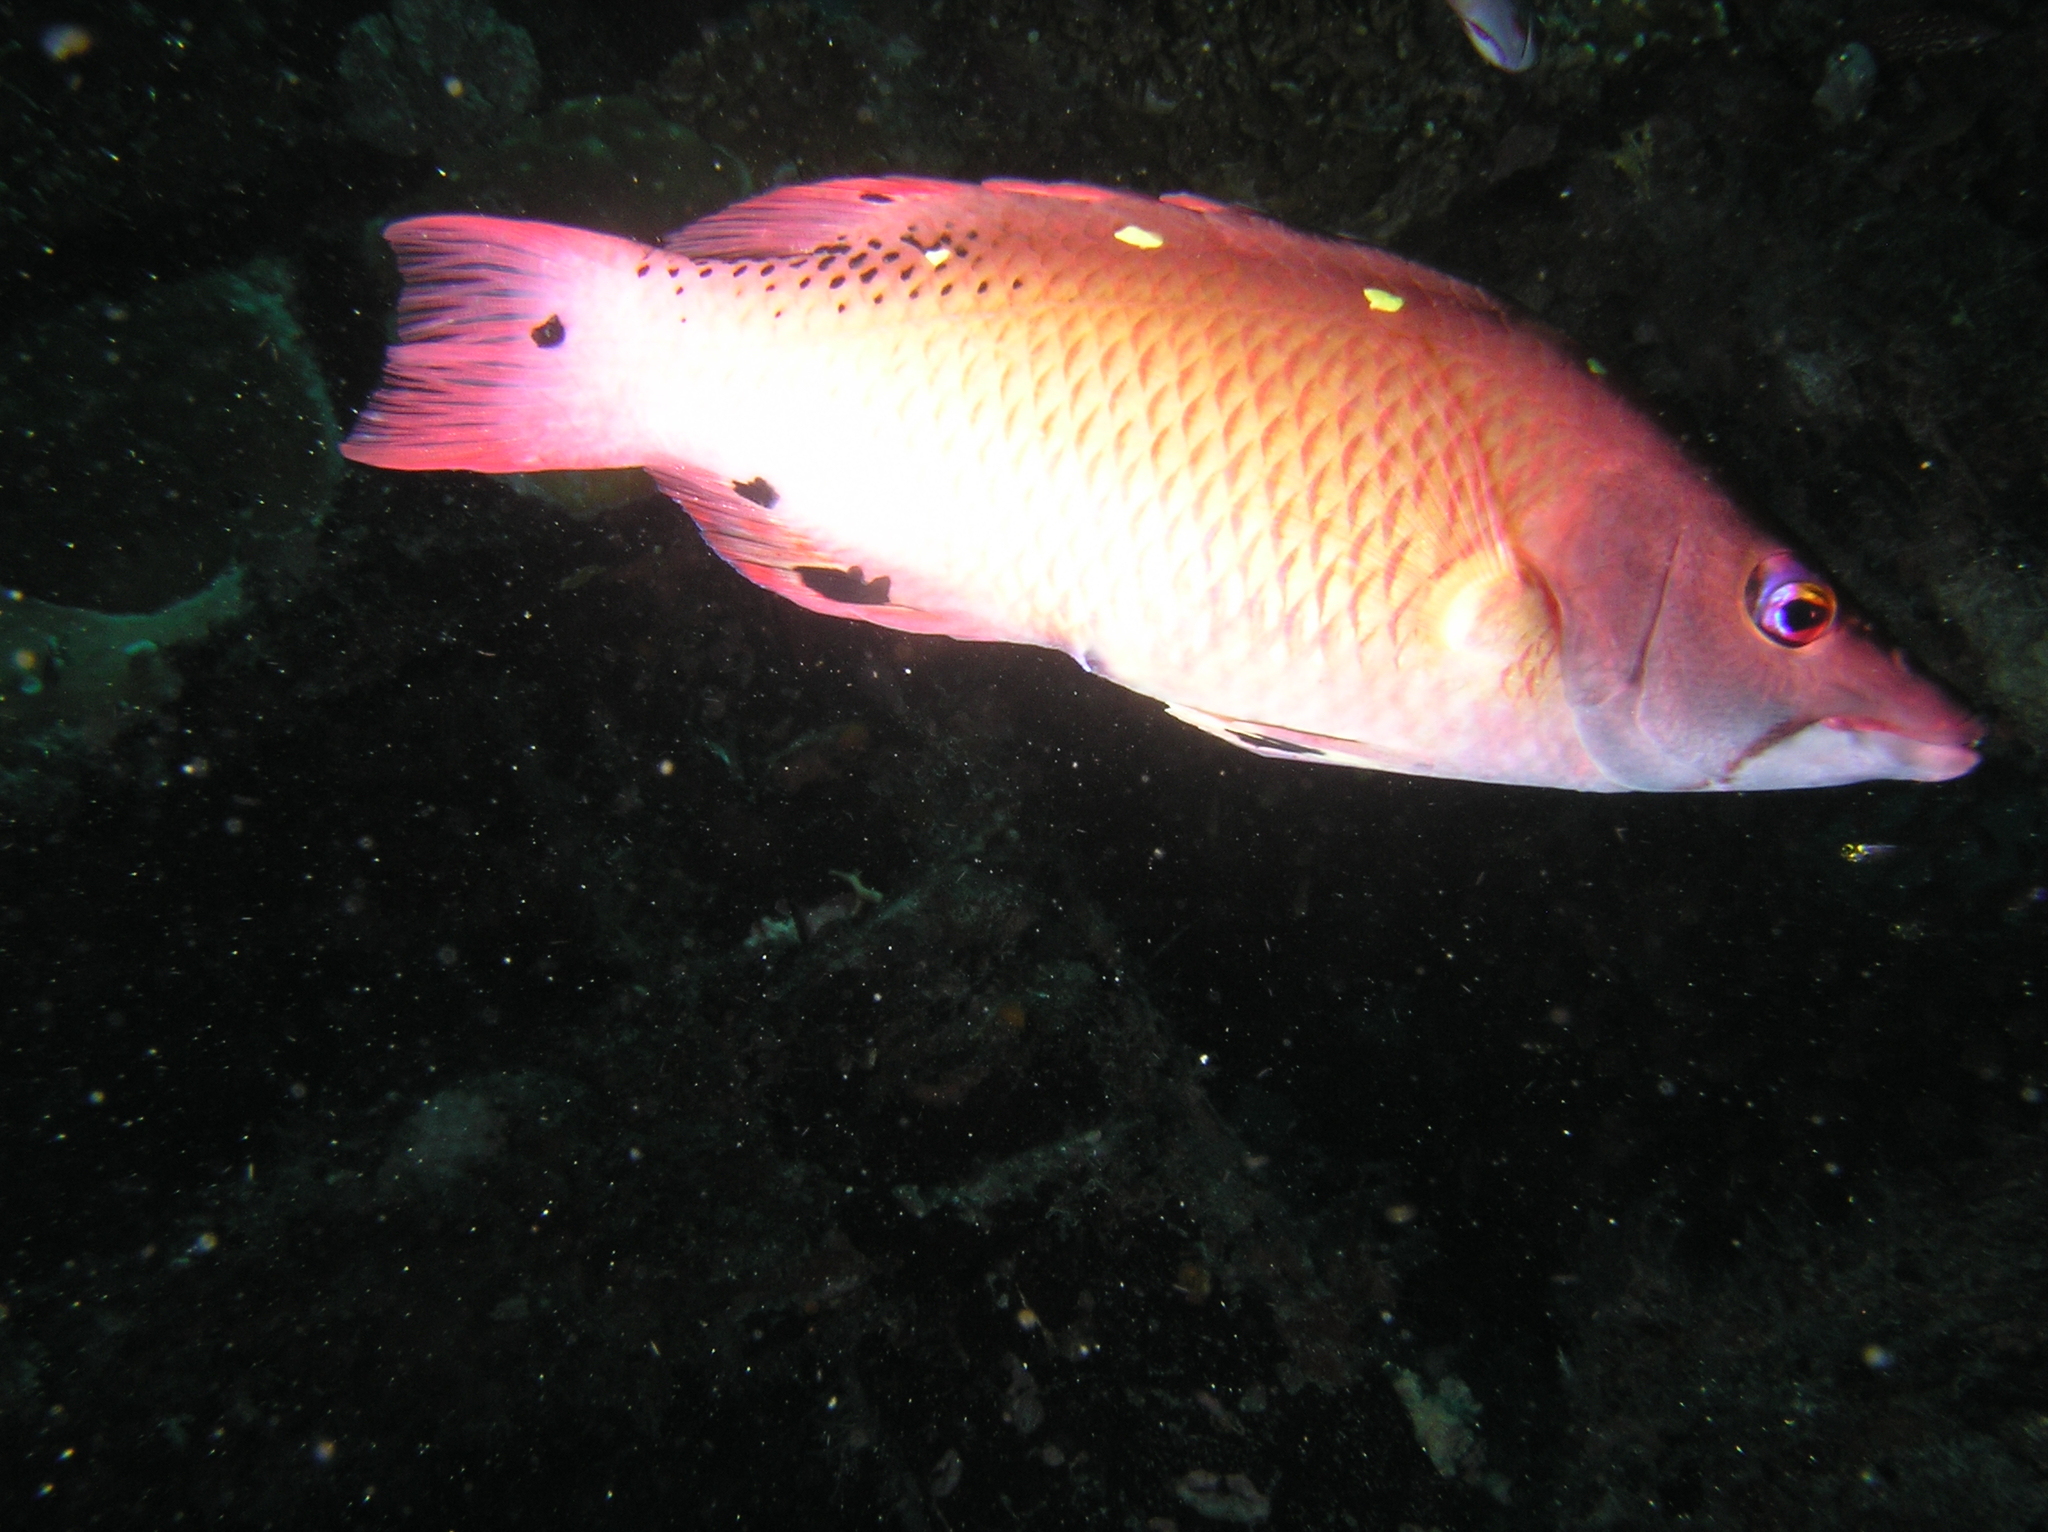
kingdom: Animalia
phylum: Chordata
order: Perciformes
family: Labridae
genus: Bodianus
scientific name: Bodianus dictynna
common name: Diana's hogfish
